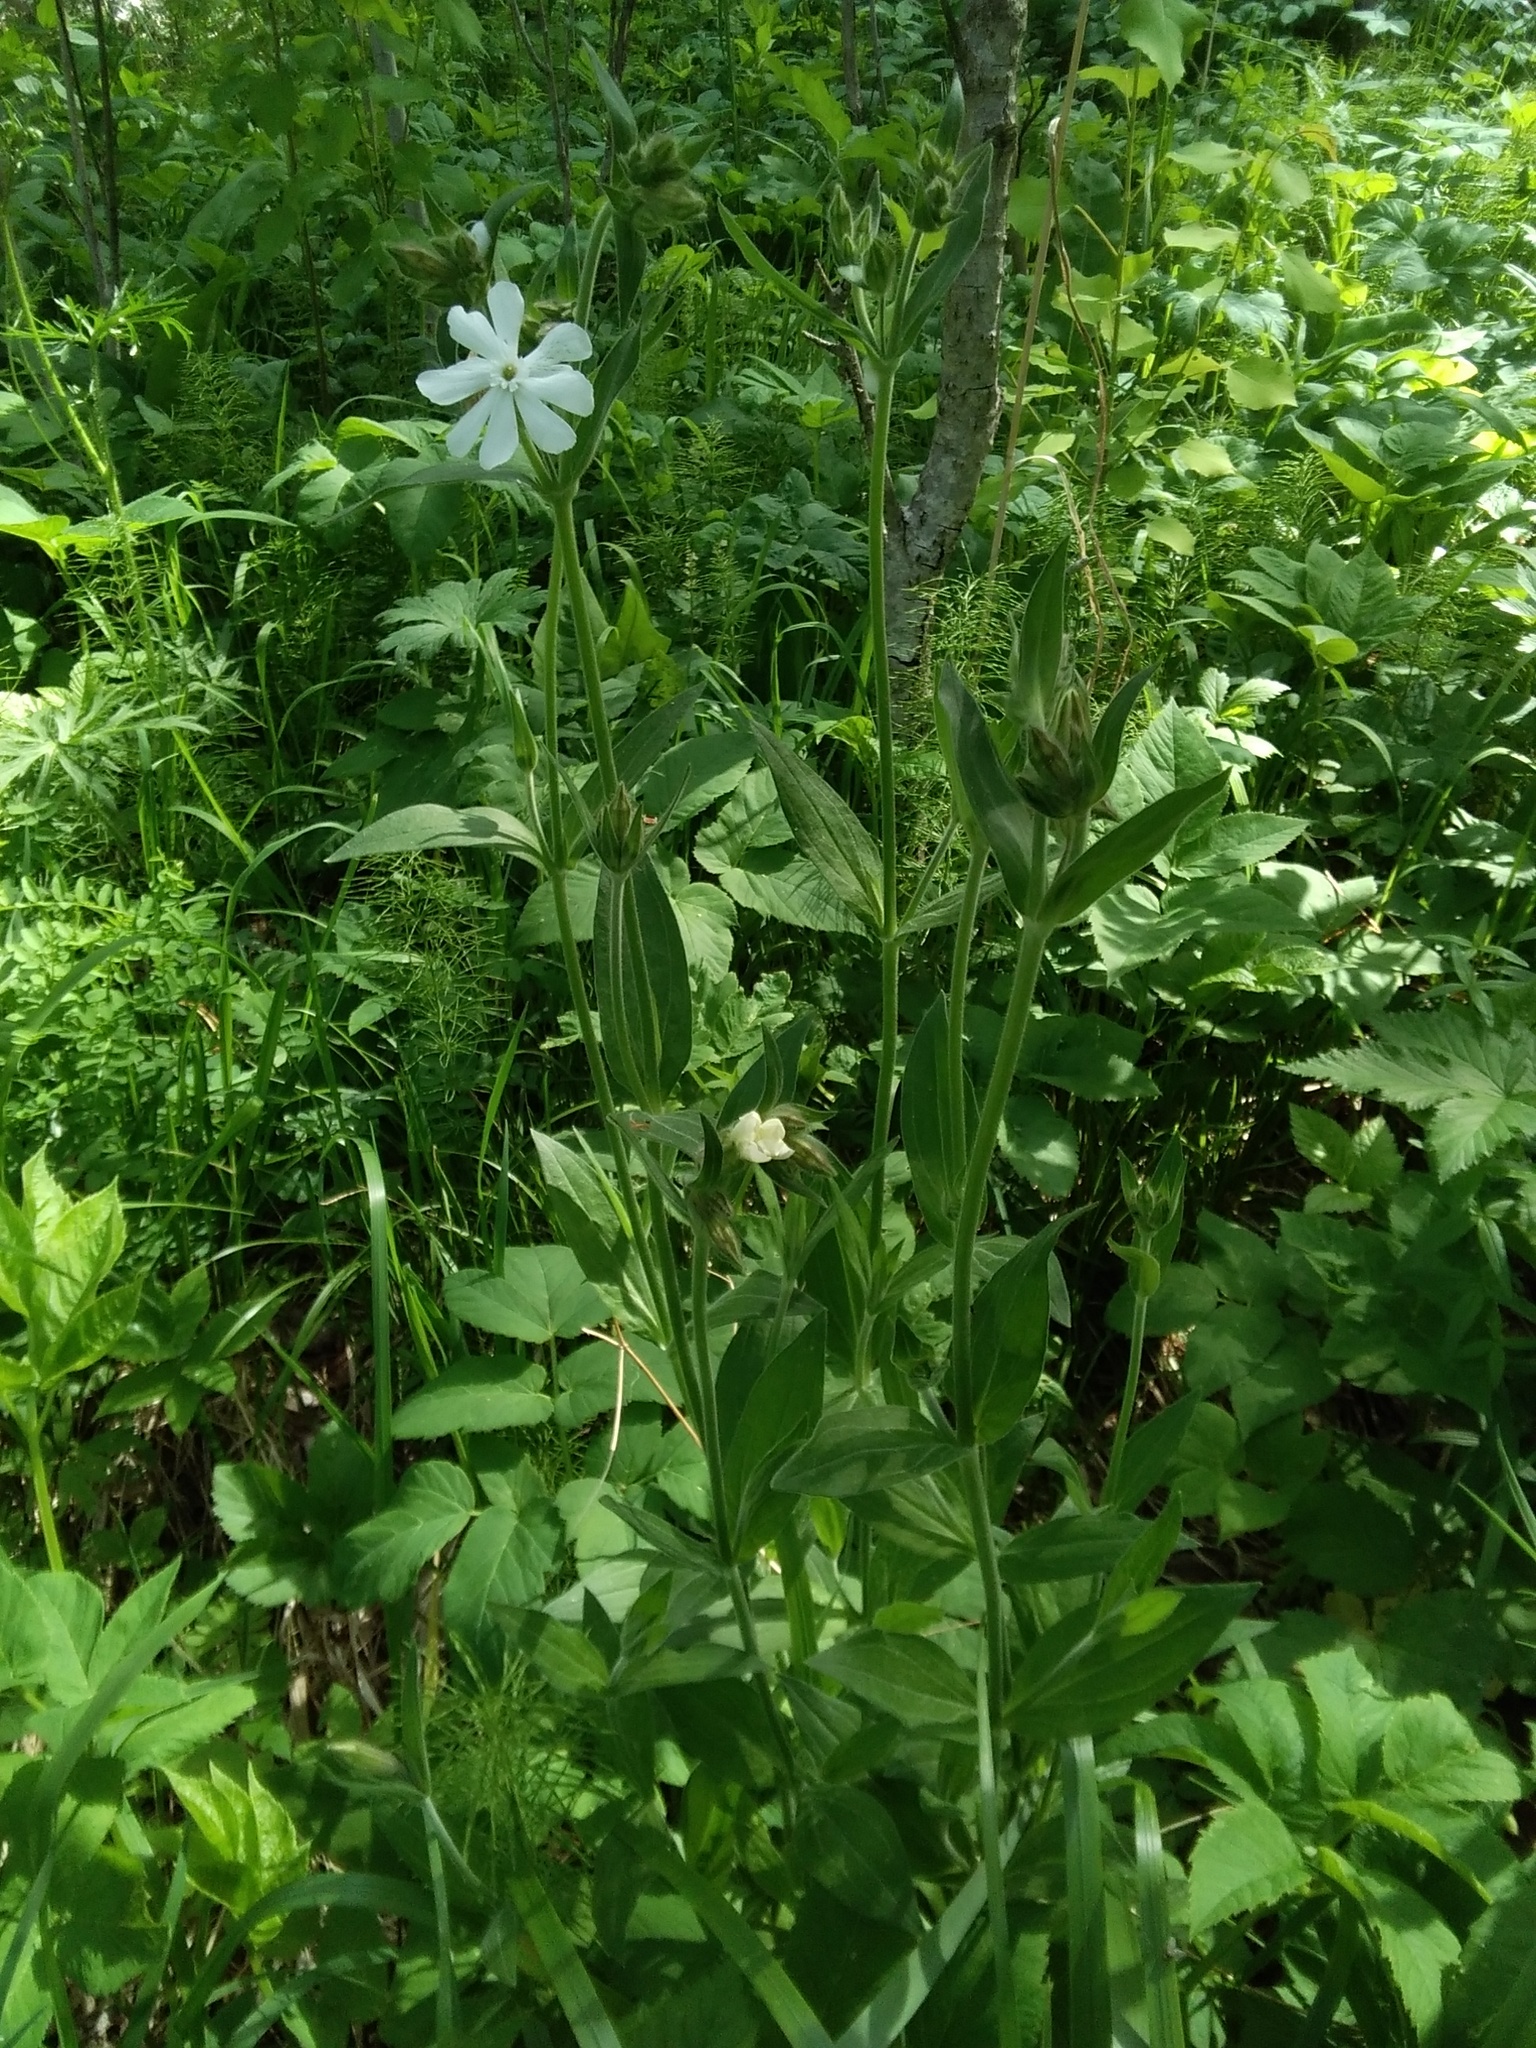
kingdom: Plantae
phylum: Tracheophyta
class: Magnoliopsida
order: Caryophyllales
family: Caryophyllaceae
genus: Silene
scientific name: Silene latifolia
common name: White campion
